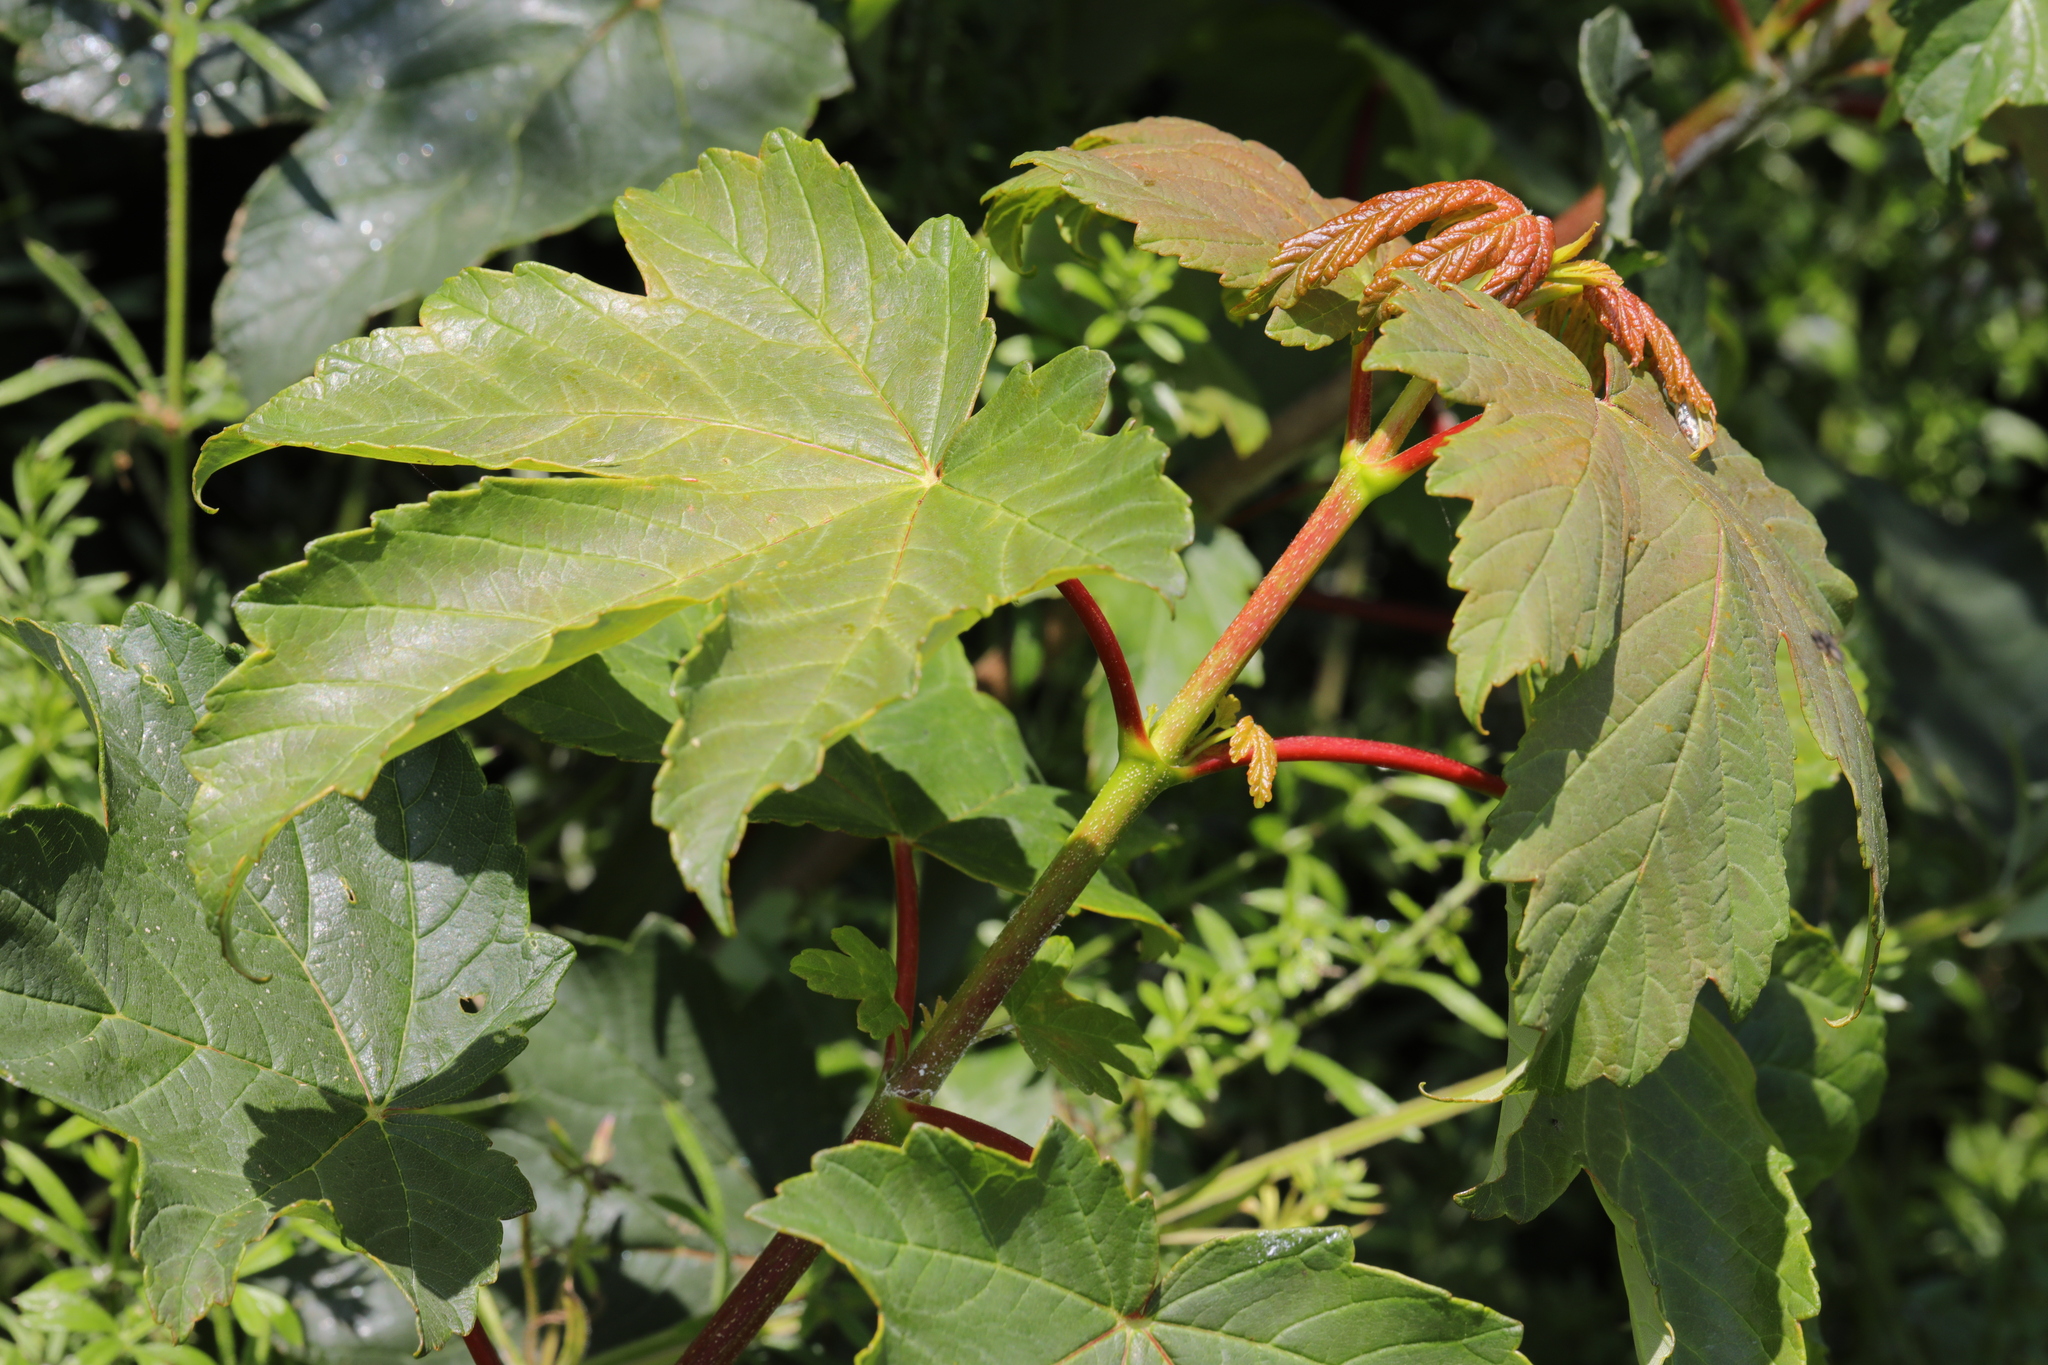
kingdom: Plantae
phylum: Tracheophyta
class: Magnoliopsida
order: Sapindales
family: Sapindaceae
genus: Acer
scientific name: Acer pseudoplatanus
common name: Sycamore
